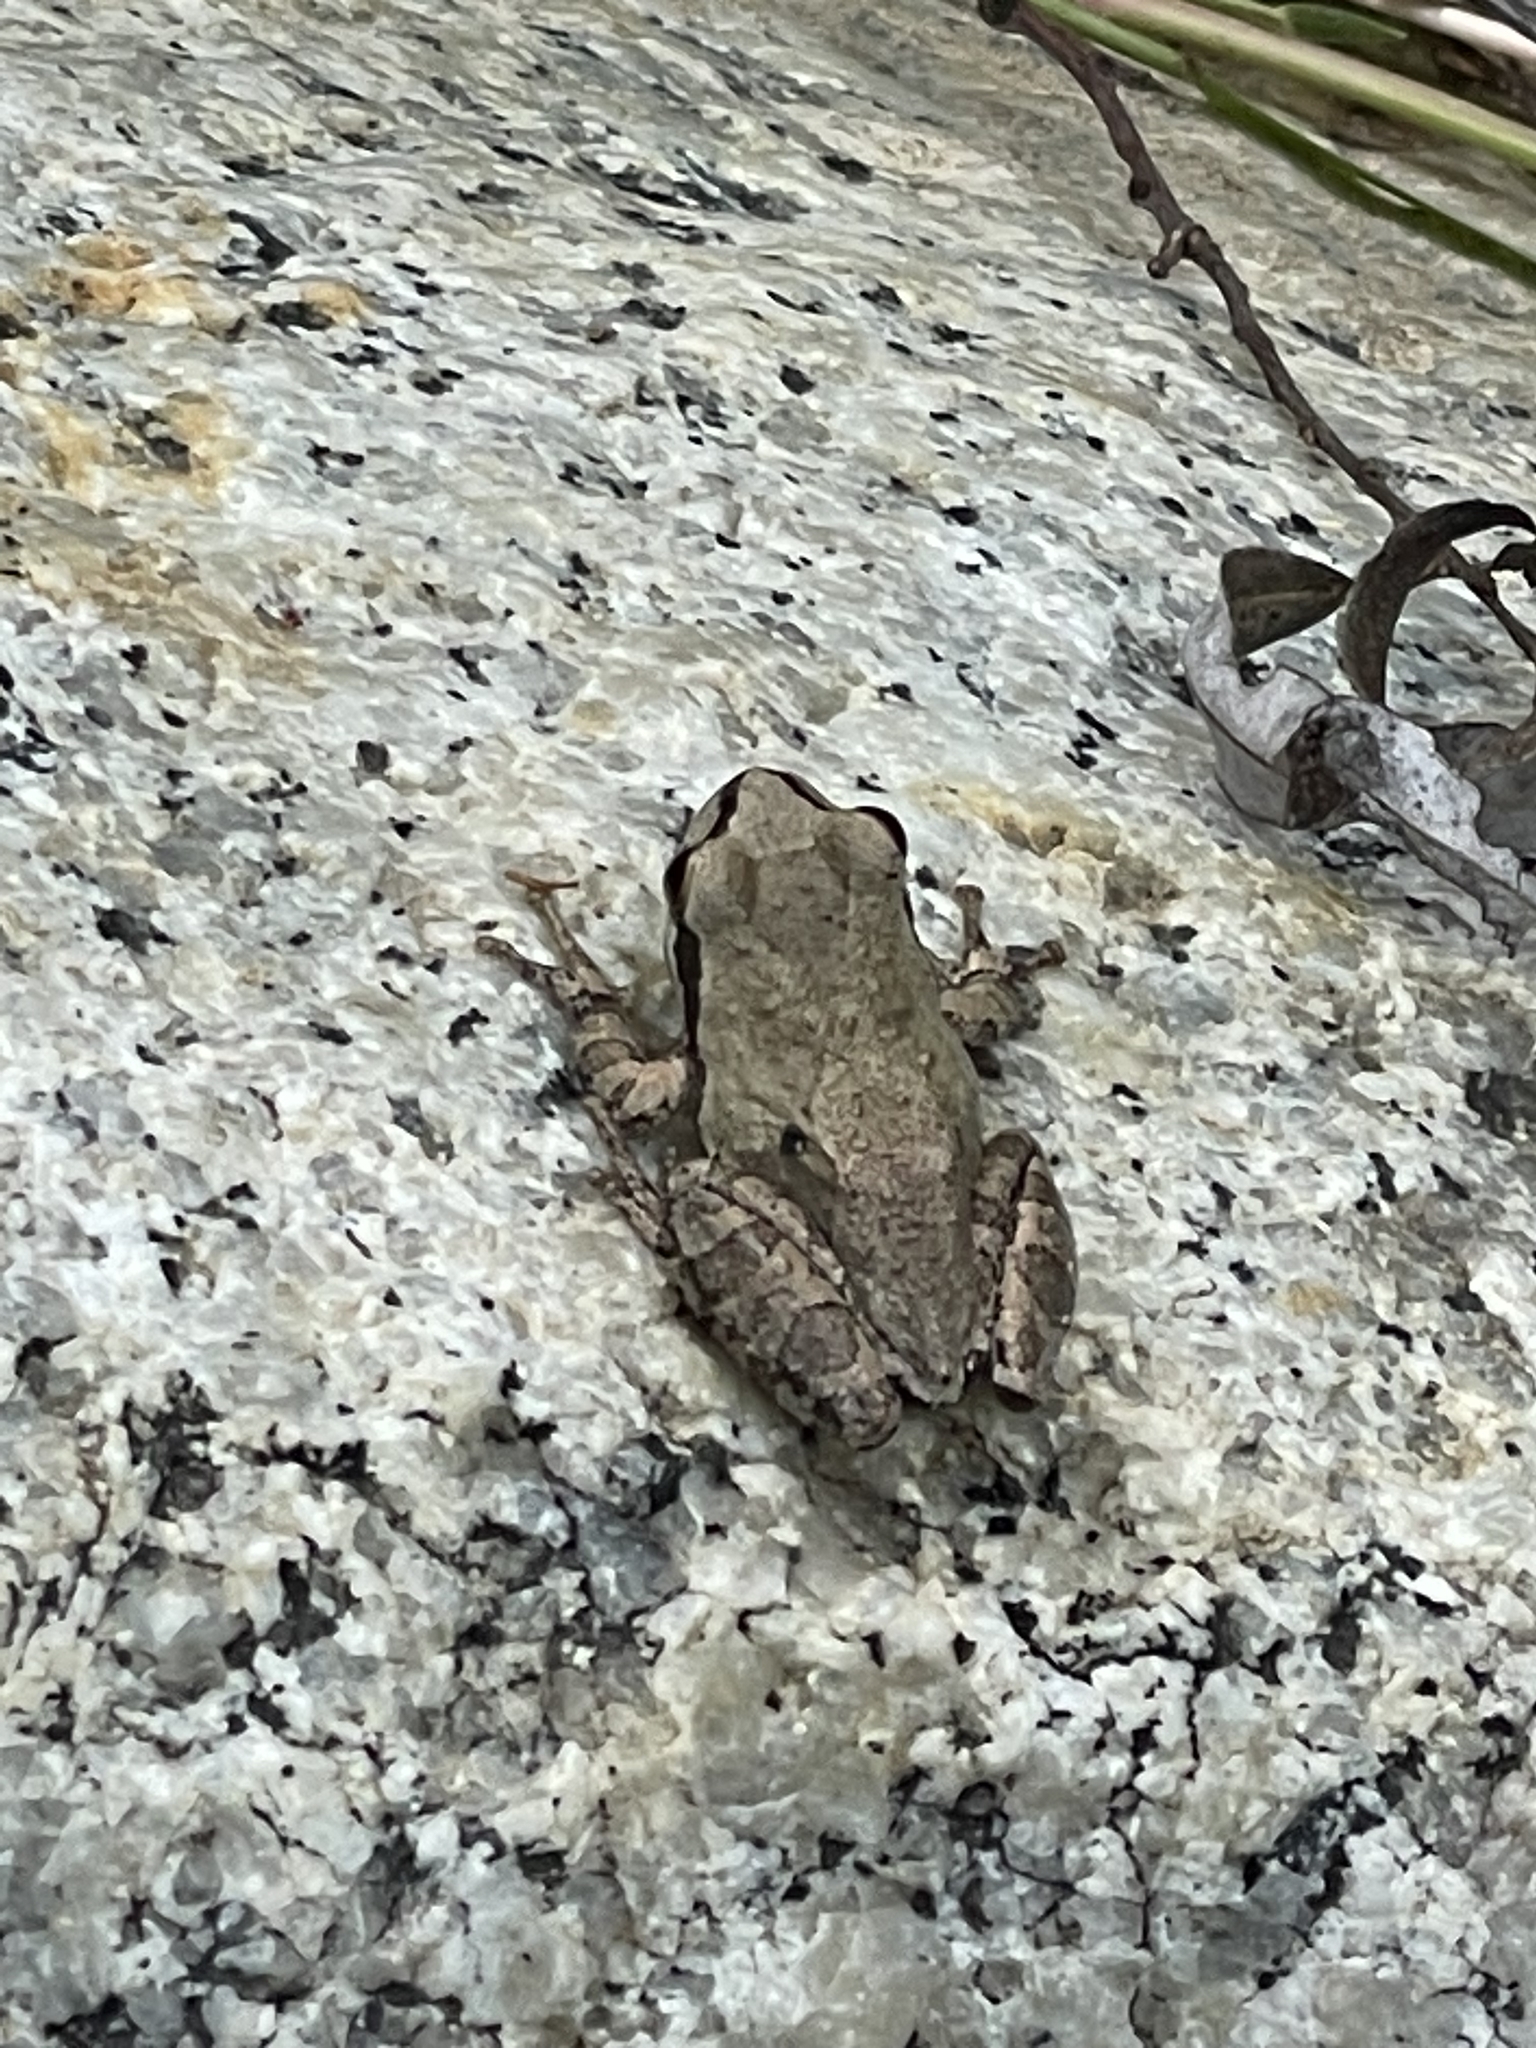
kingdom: Animalia
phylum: Chordata
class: Amphibia
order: Anura
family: Hylidae
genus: Pseudacris
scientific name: Pseudacris regilla
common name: Pacific chorus frog
